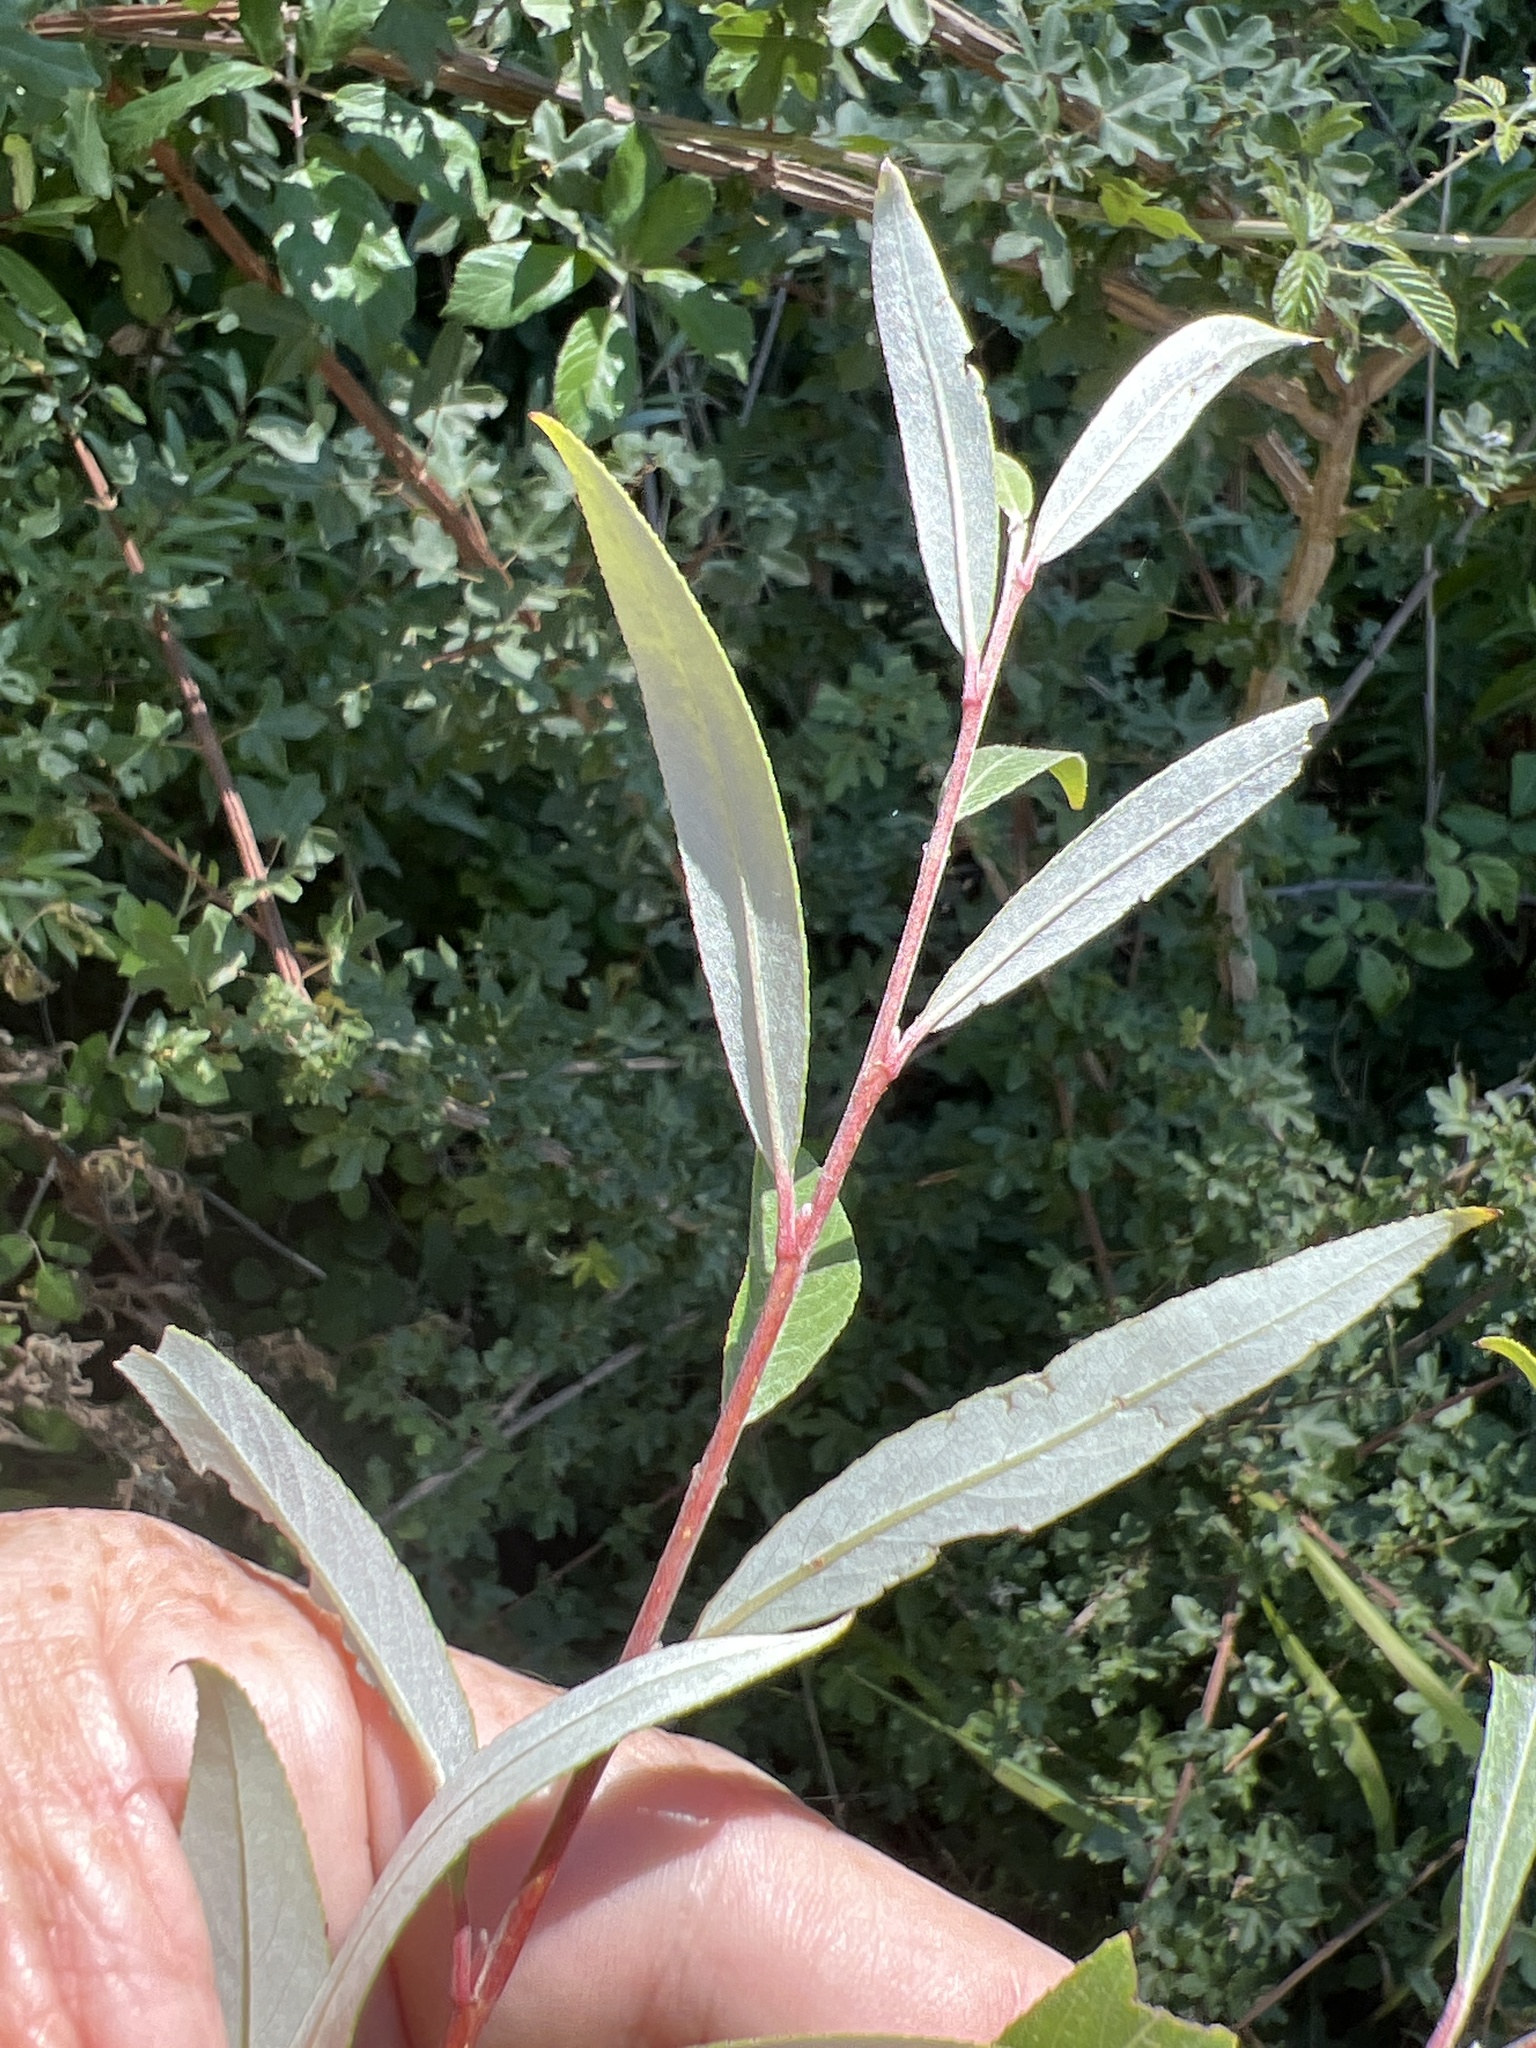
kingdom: Plantae
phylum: Tracheophyta
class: Magnoliopsida
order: Malpighiales
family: Salicaceae
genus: Salix
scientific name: Salix alba
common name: White willow
